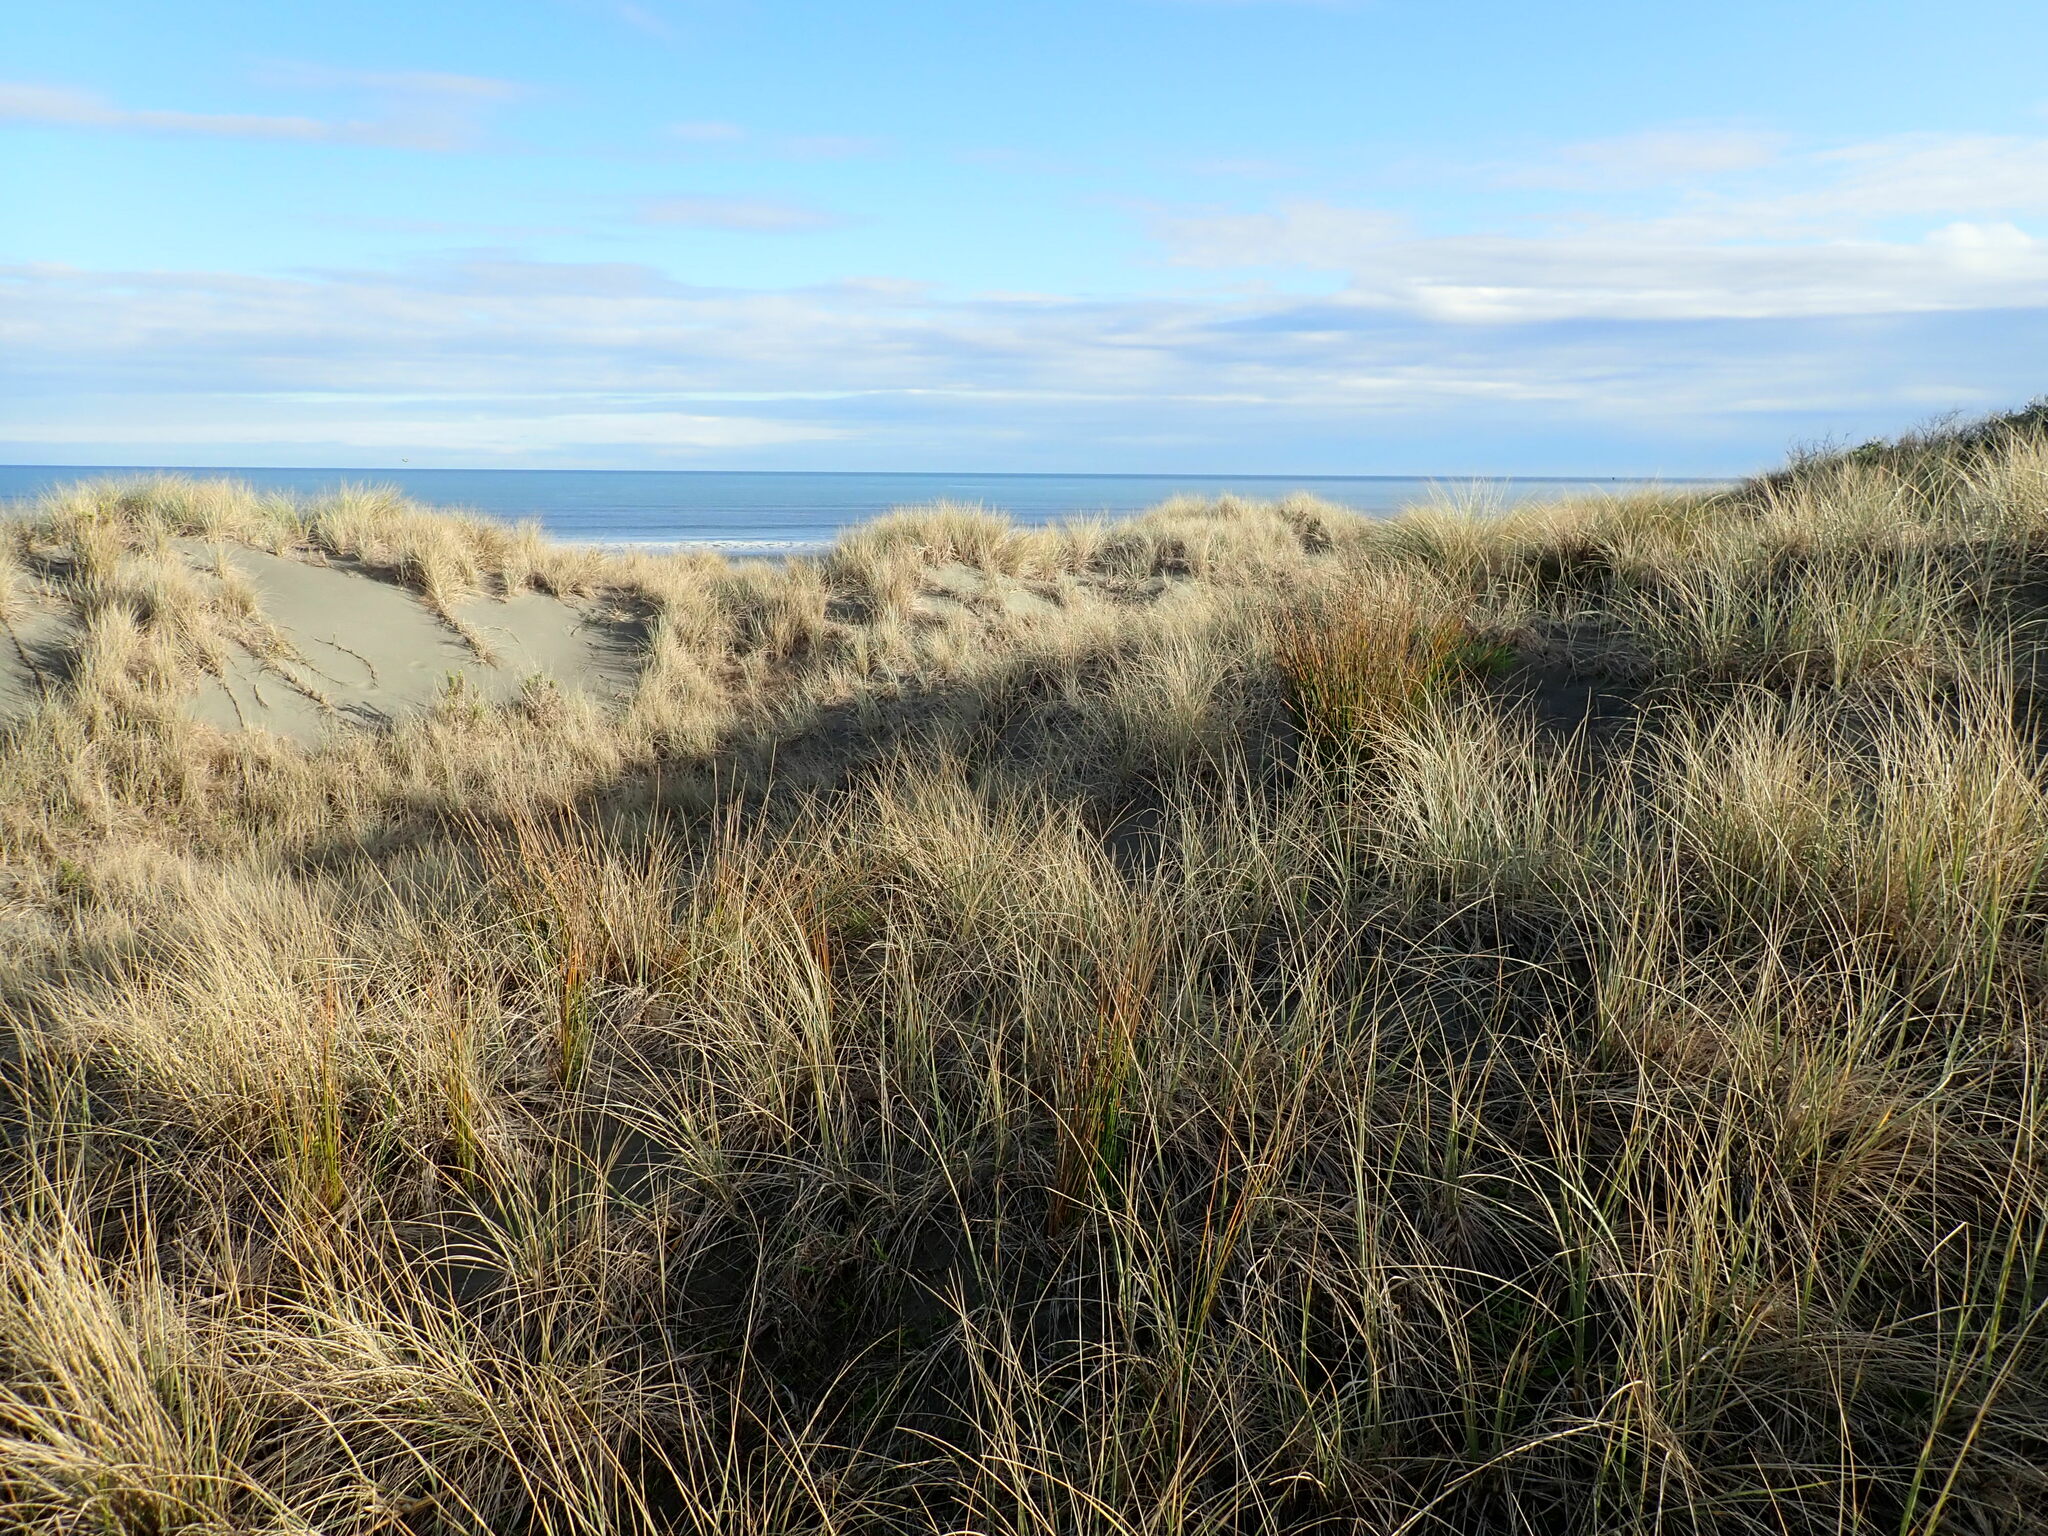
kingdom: Plantae
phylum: Tracheophyta
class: Liliopsida
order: Poales
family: Cyperaceae
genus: Ficinia
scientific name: Ficinia nodosa
